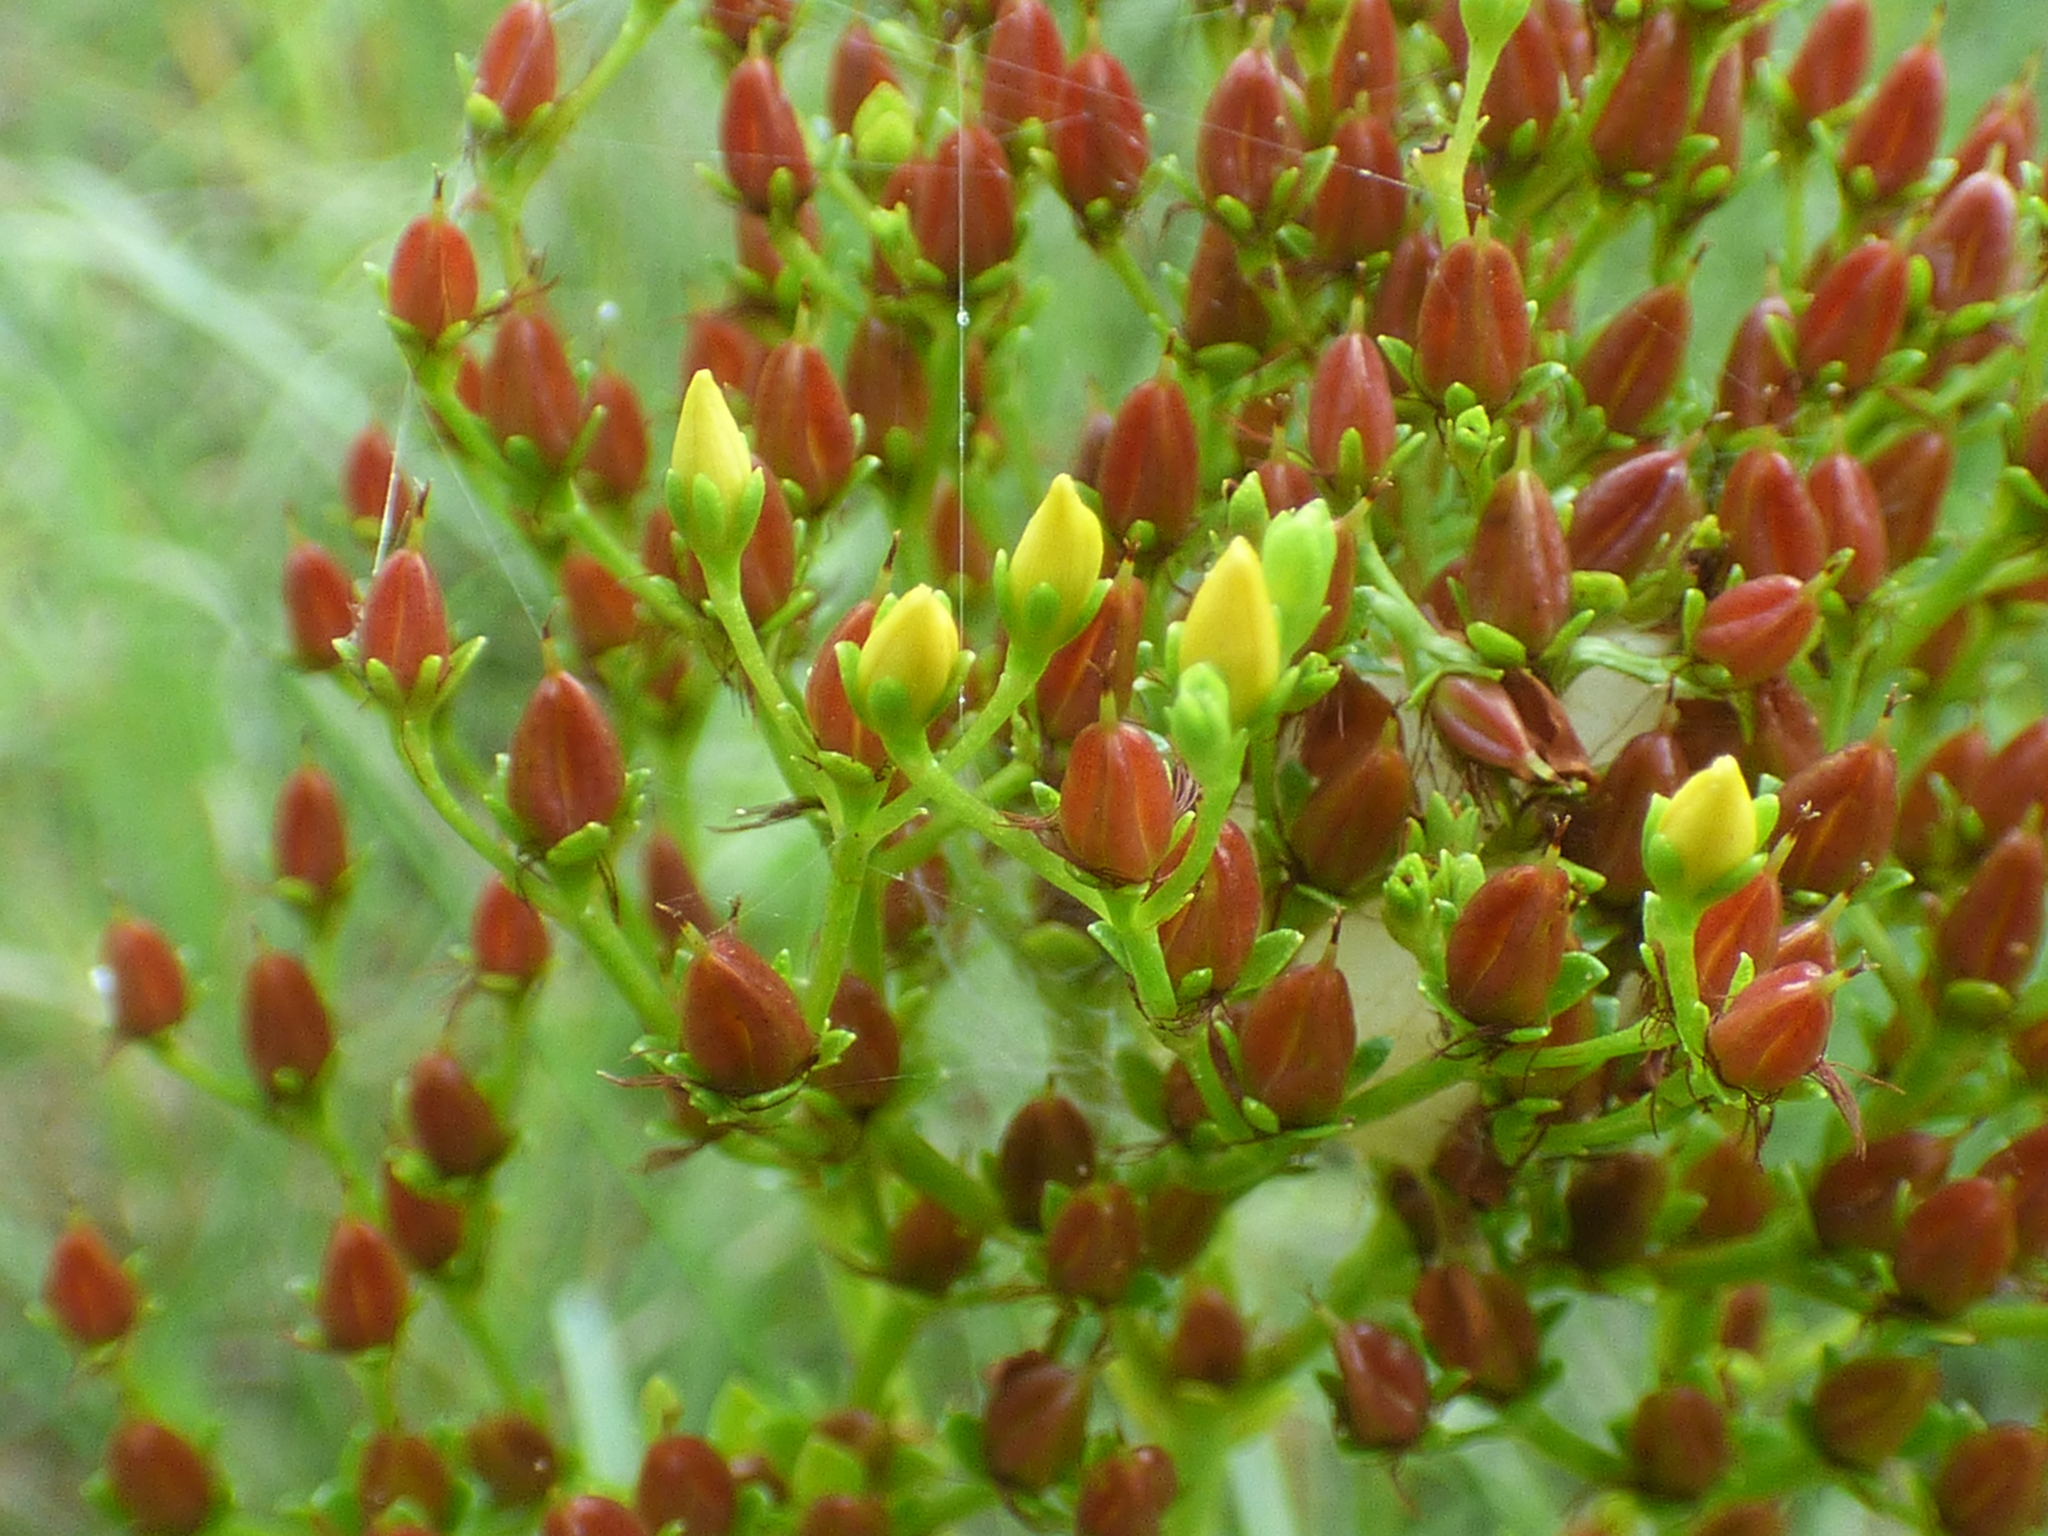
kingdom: Plantae
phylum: Tracheophyta
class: Magnoliopsida
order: Malpighiales
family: Hypericaceae
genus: Hypericum
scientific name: Hypericum cistifolium
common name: Round-pod st. john's-wort
